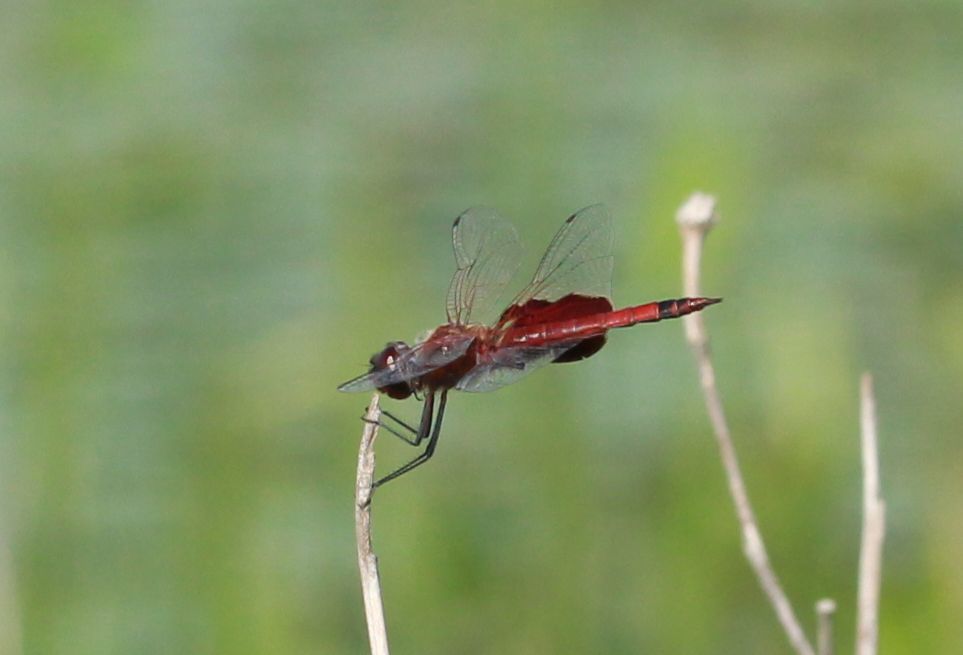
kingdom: Animalia
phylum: Arthropoda
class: Insecta
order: Odonata
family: Libellulidae
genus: Tramea
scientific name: Tramea carolina
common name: Carolina saddlebags
